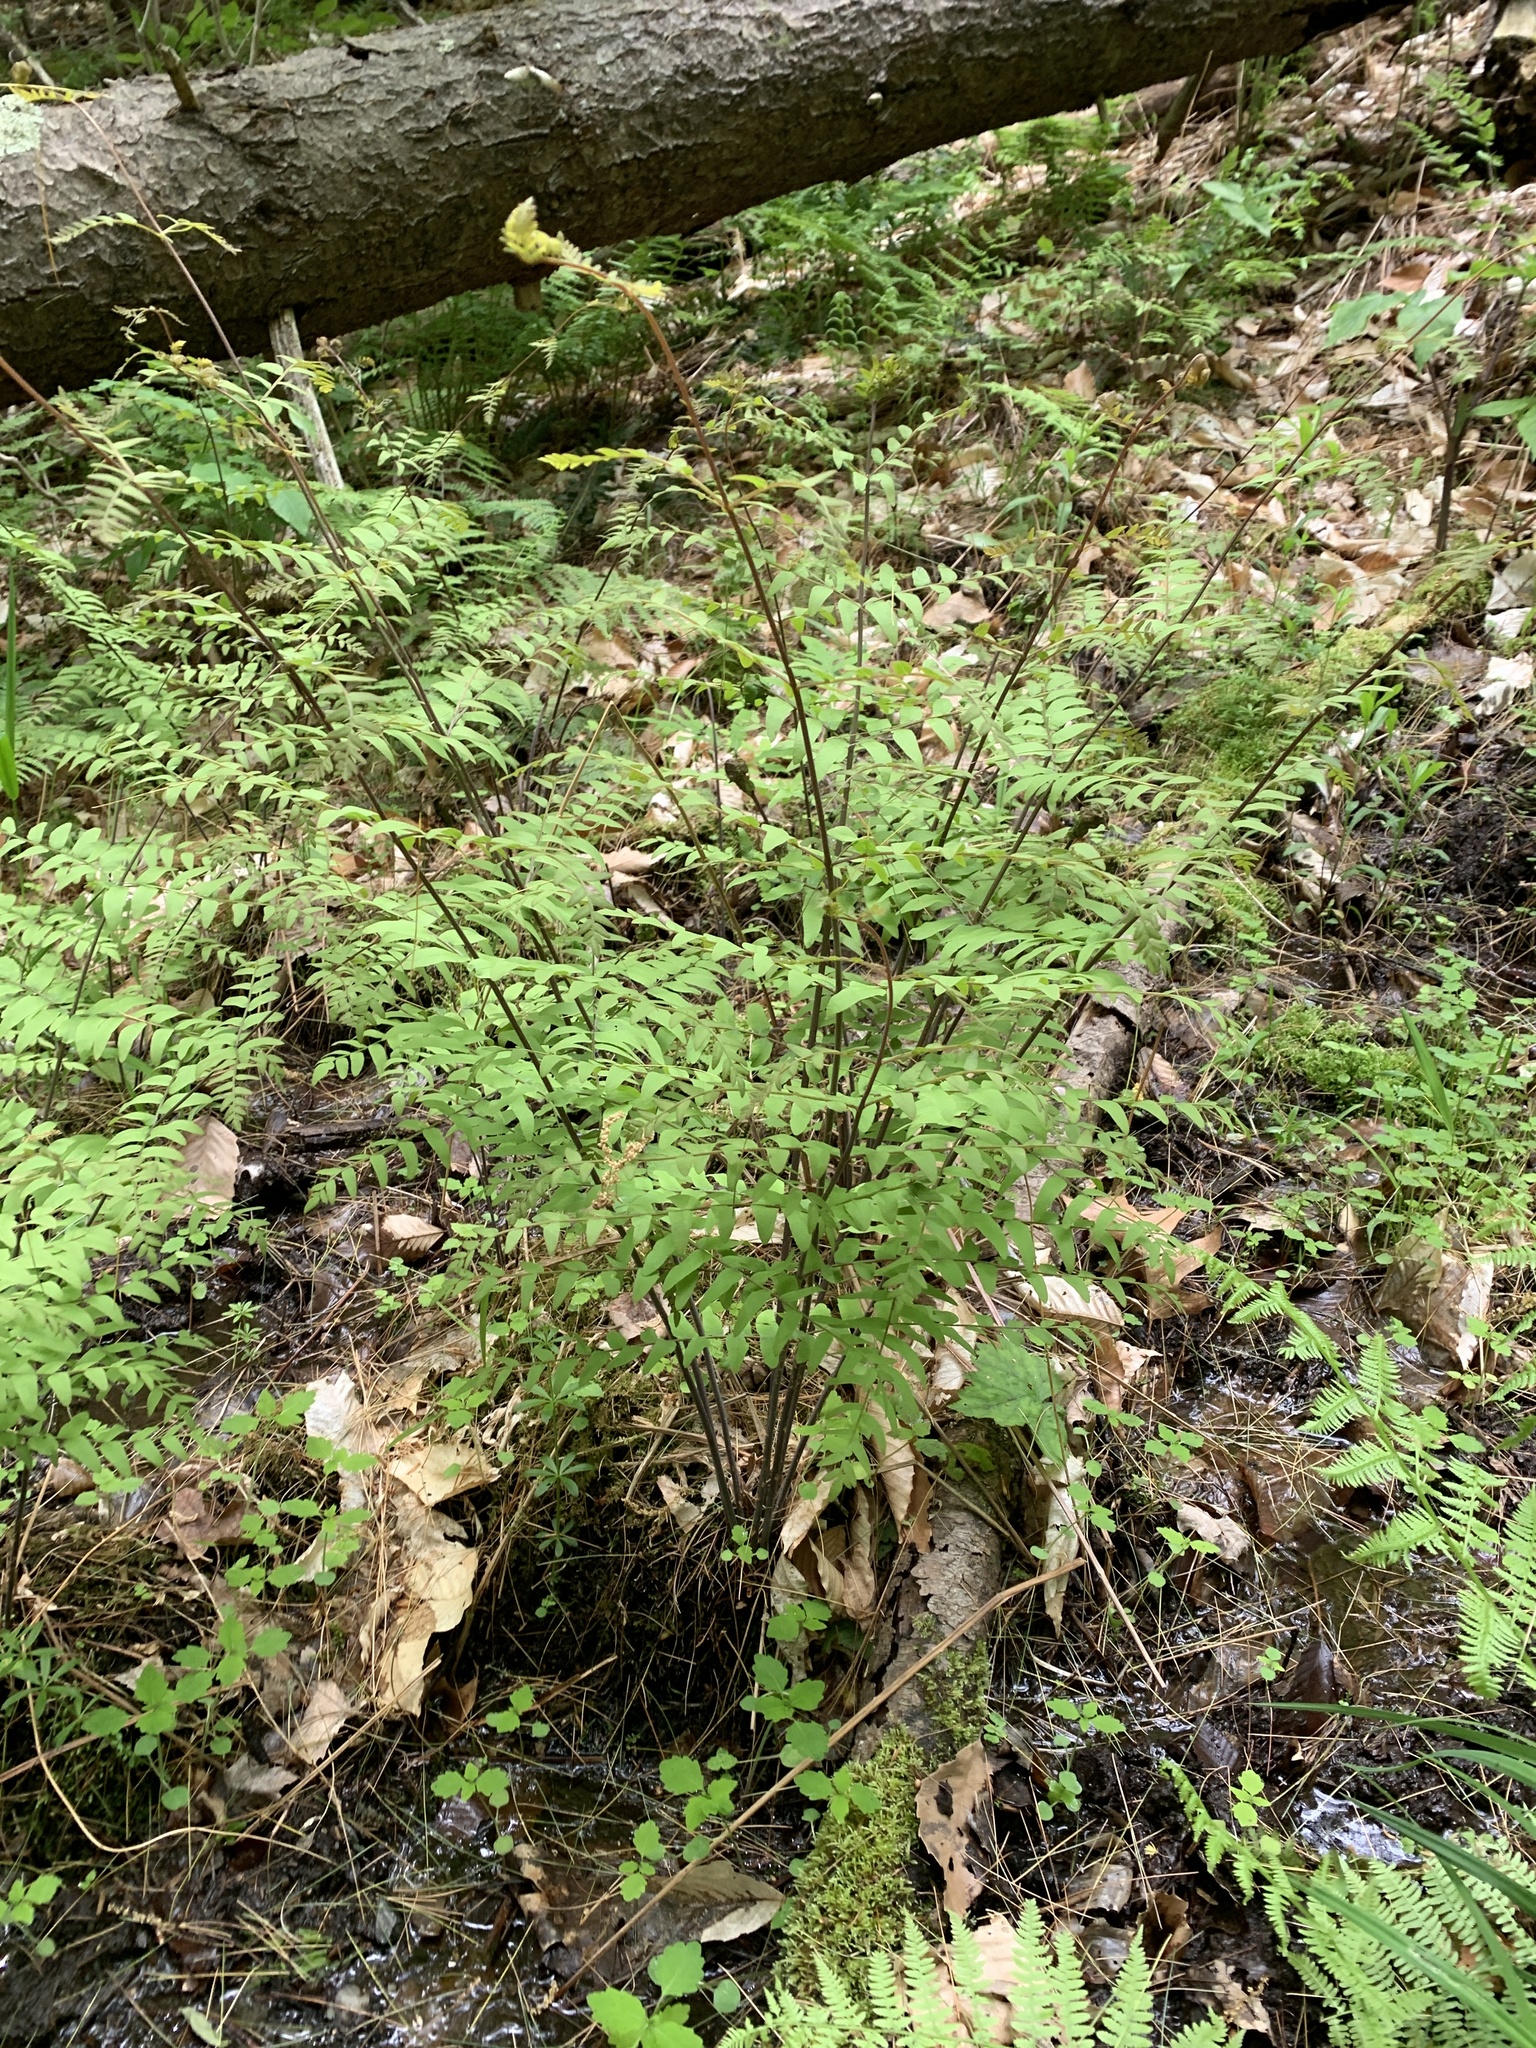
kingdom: Plantae
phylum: Tracheophyta
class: Polypodiopsida
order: Osmundales
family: Osmundaceae
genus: Osmunda
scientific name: Osmunda spectabilis
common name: American royal fern
